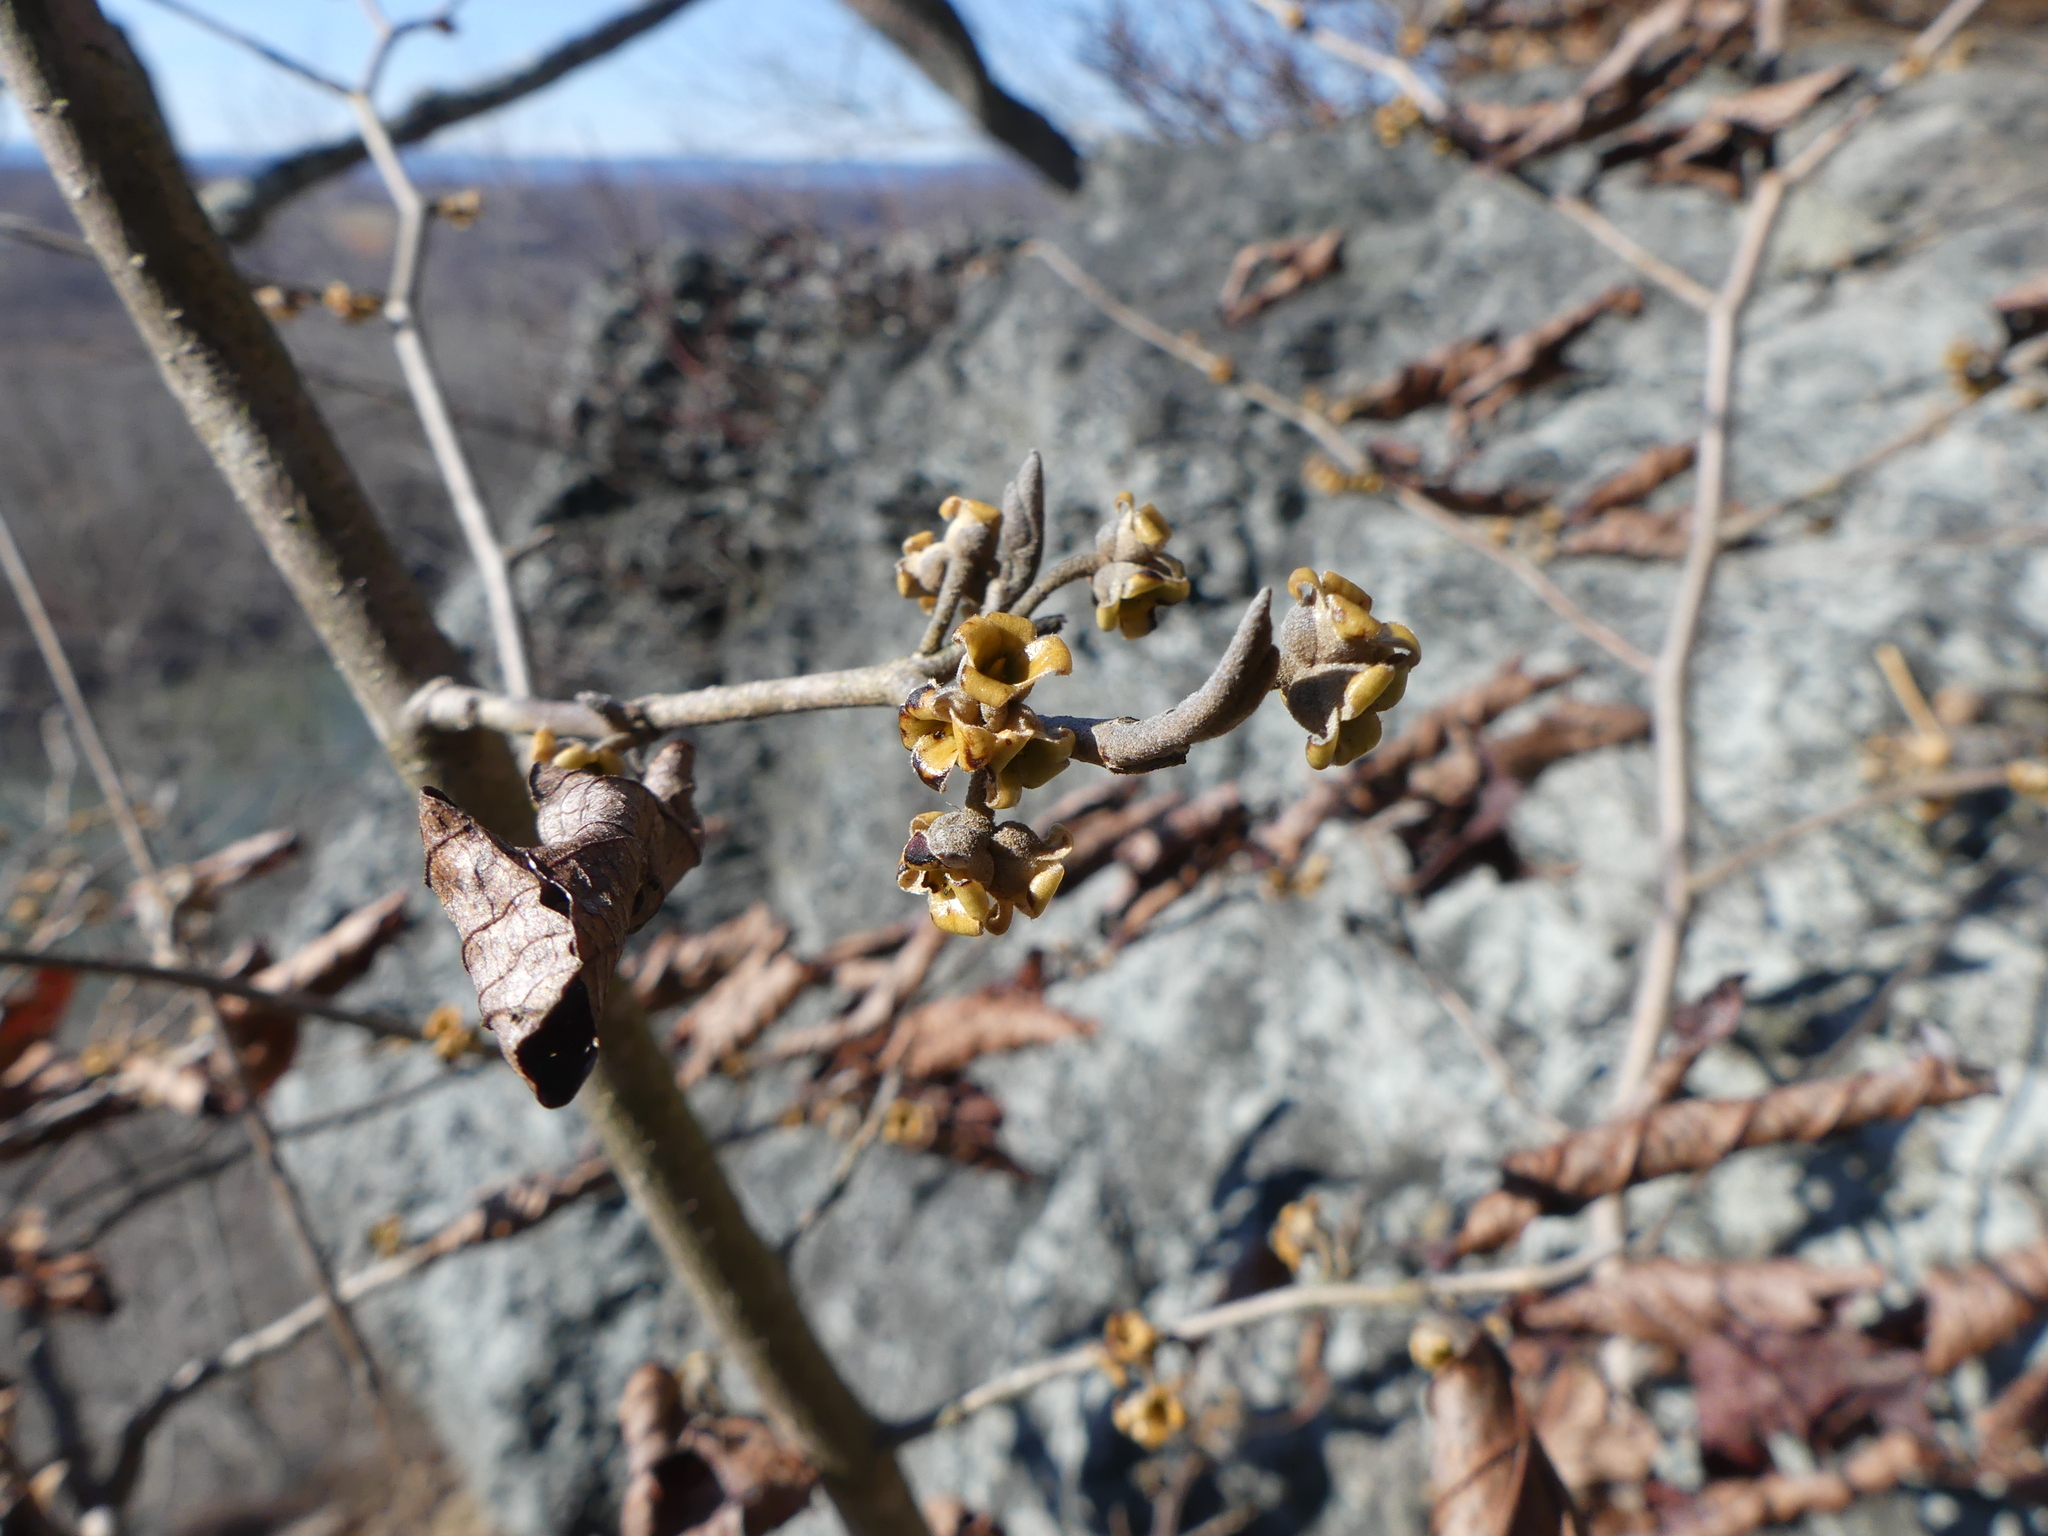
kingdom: Plantae
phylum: Tracheophyta
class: Magnoliopsida
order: Saxifragales
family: Hamamelidaceae
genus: Hamamelis
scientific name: Hamamelis virginiana
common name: Witch-hazel
